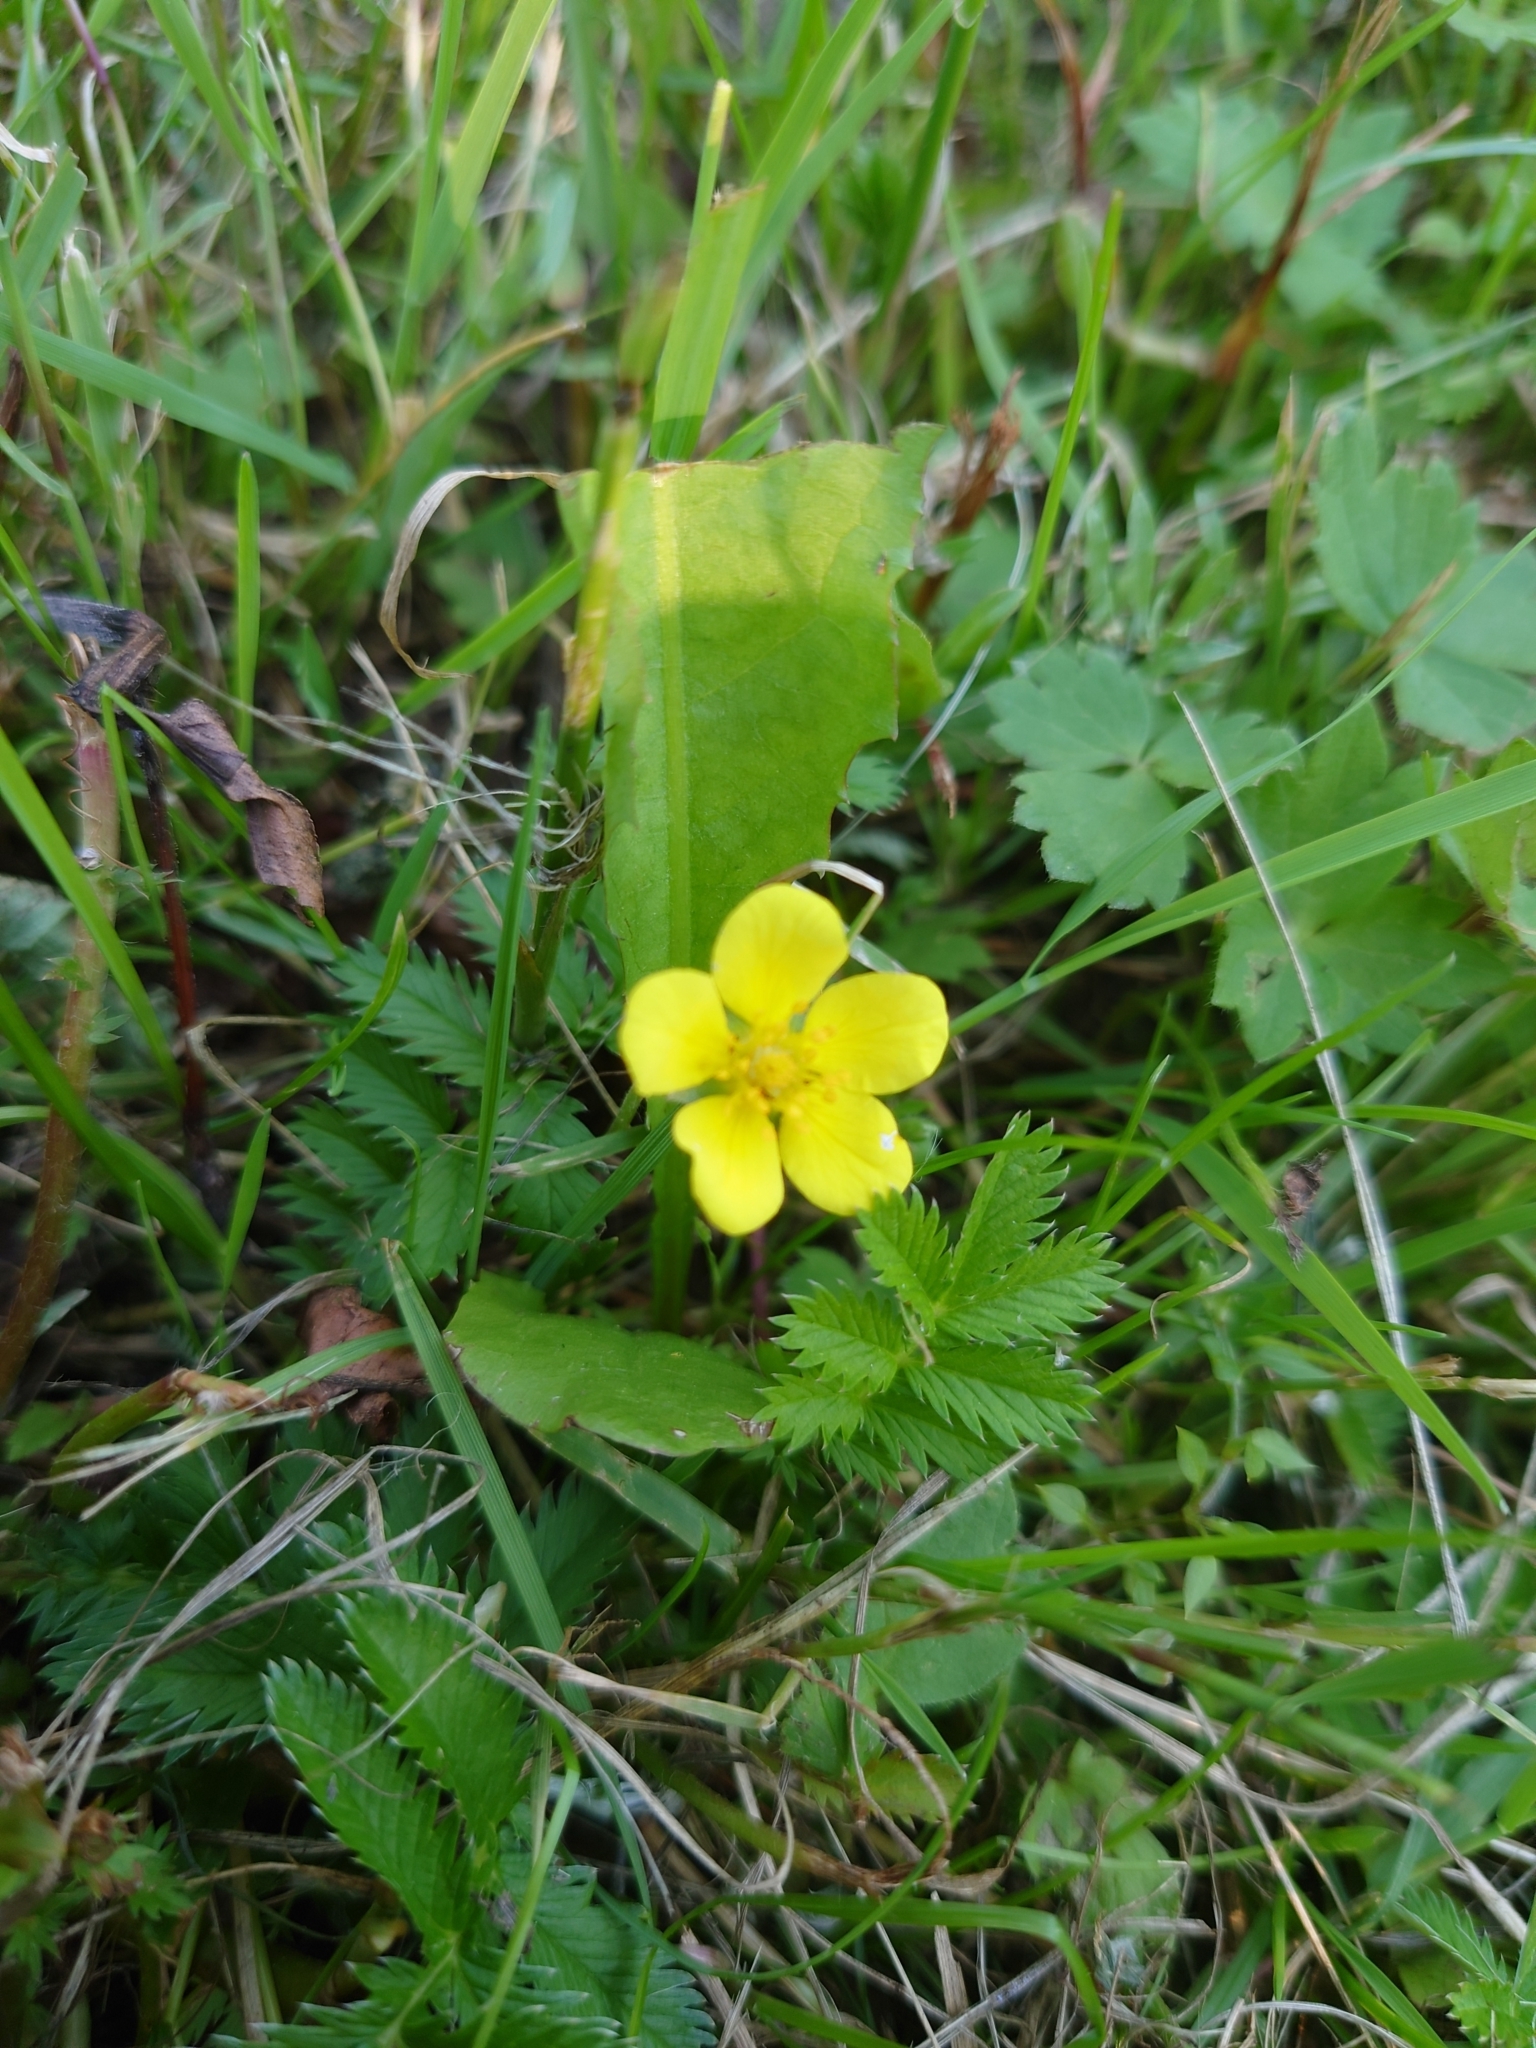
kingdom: Plantae
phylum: Tracheophyta
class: Magnoliopsida
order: Rosales
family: Rosaceae
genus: Argentina
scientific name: Argentina anserina
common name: Common silverweed
